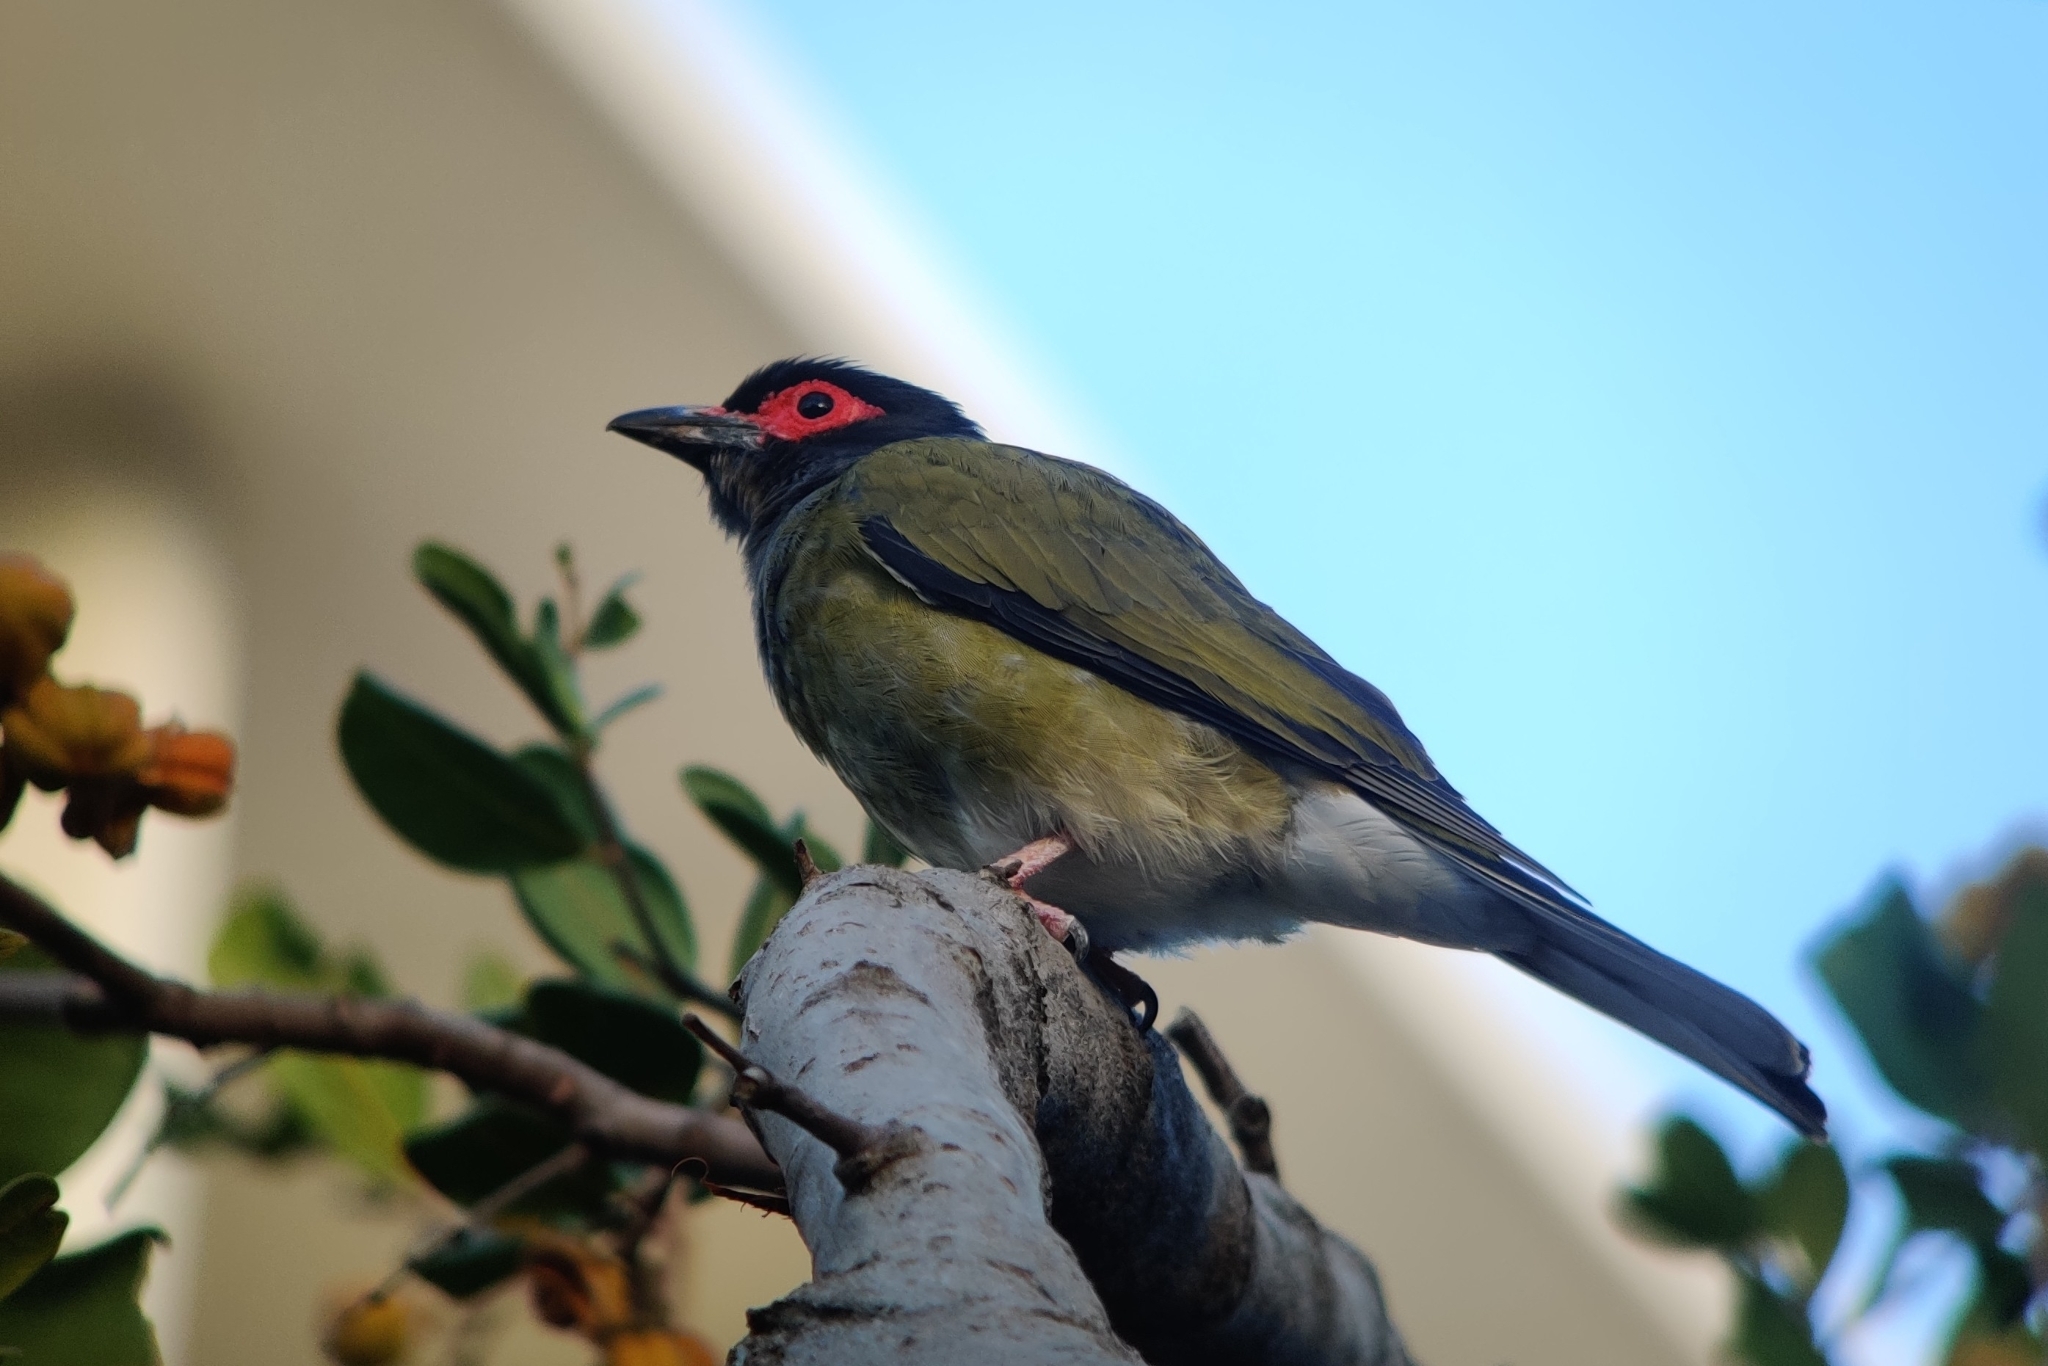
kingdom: Animalia
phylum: Chordata
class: Aves
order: Passeriformes
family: Oriolidae
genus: Sphecotheres
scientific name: Sphecotheres vieilloti
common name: Australasian figbird
